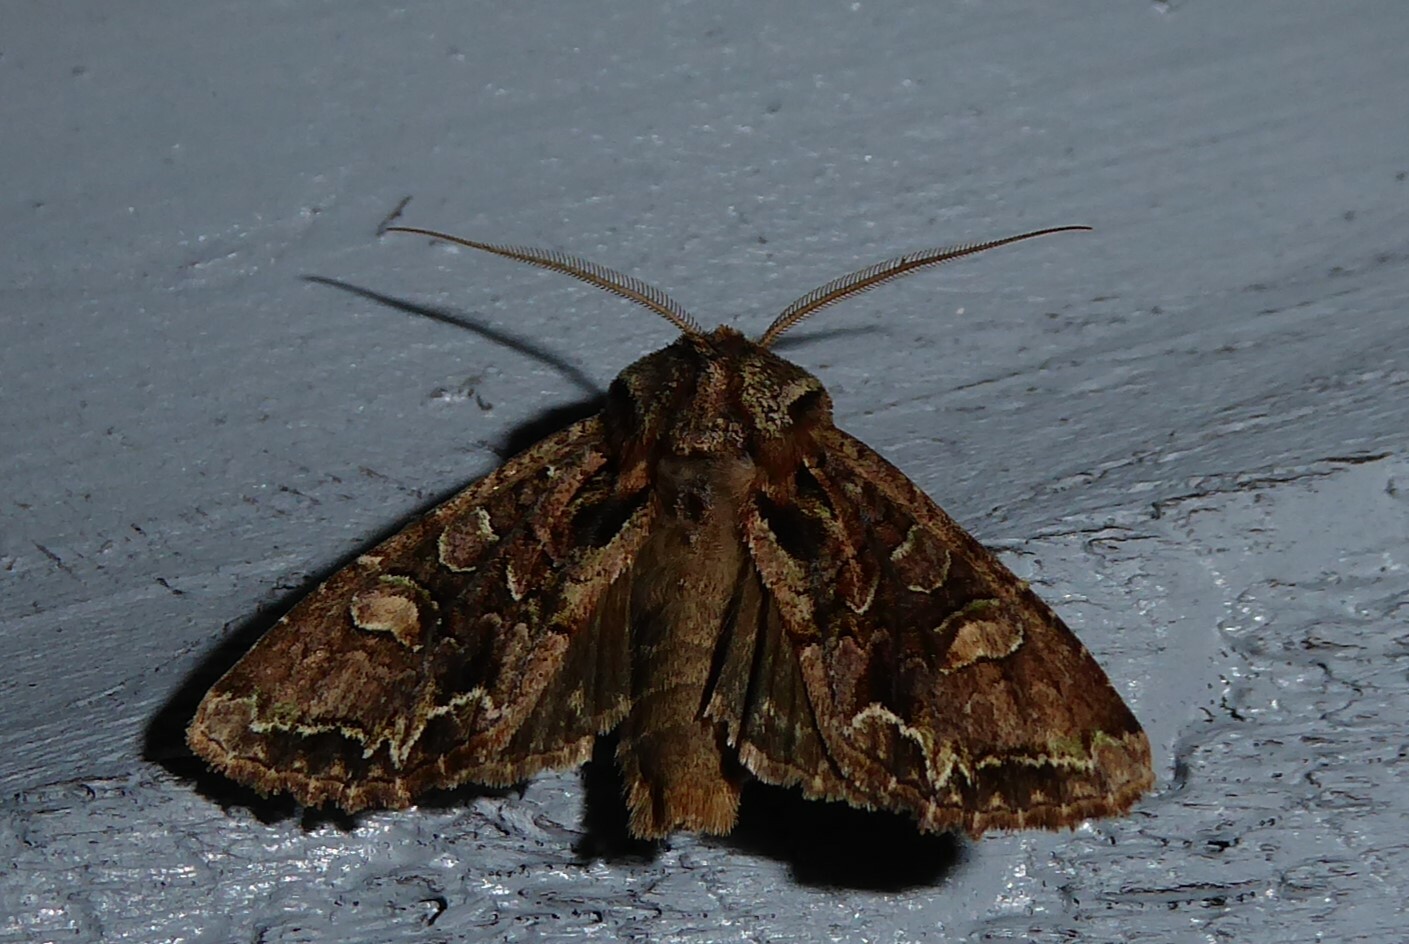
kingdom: Animalia
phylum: Arthropoda
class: Insecta
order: Lepidoptera
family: Noctuidae
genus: Ichneutica
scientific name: Ichneutica insignis
